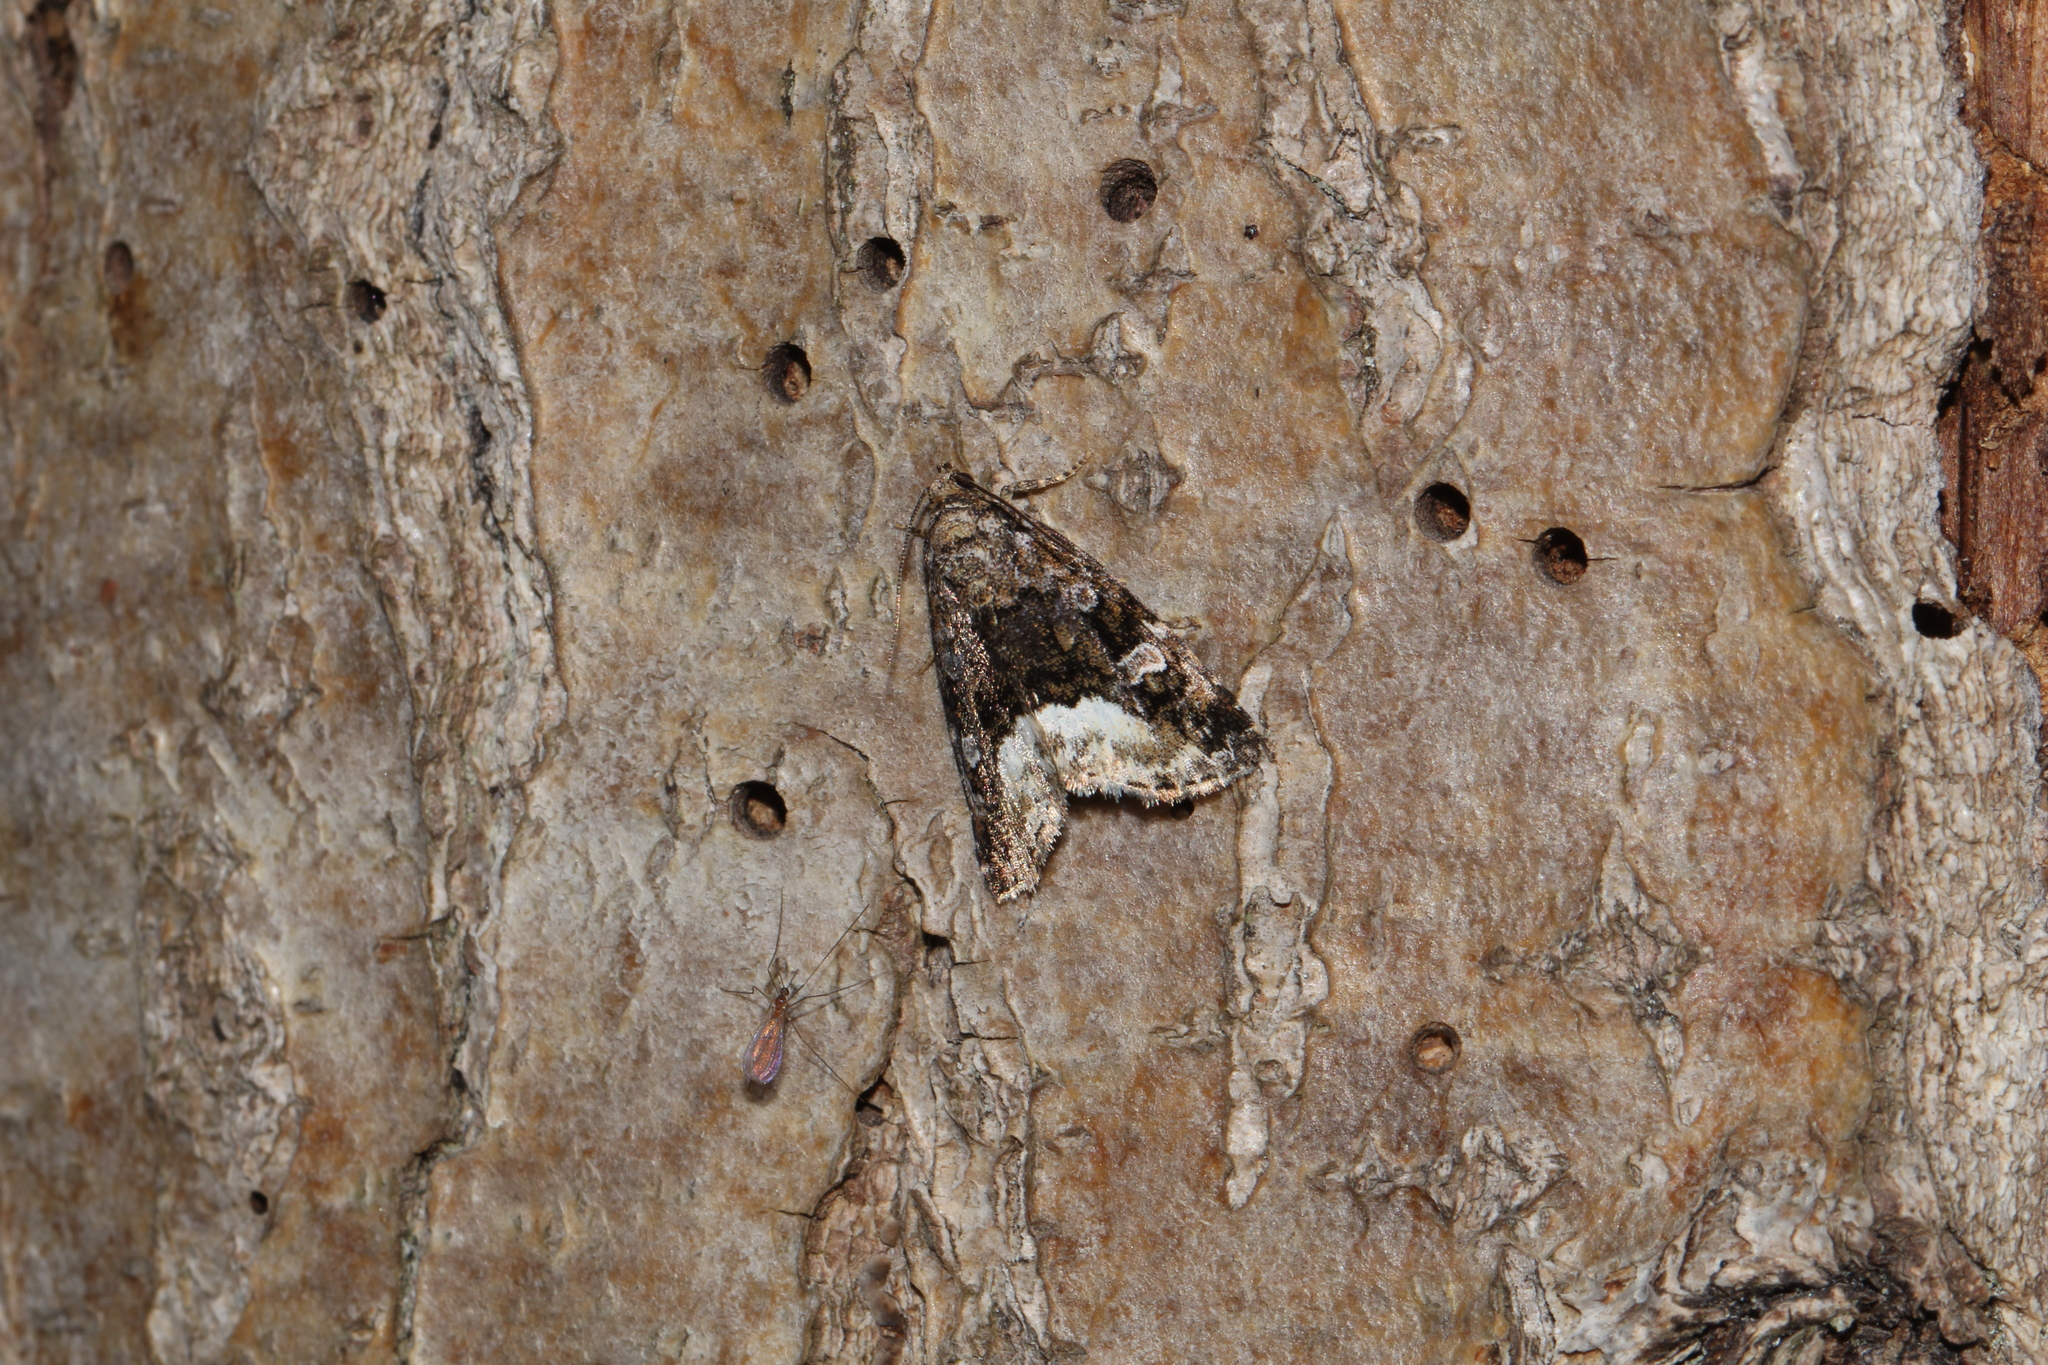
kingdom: Animalia
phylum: Arthropoda
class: Insecta
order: Lepidoptera
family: Noctuidae
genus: Deltote
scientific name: Deltote pygarga
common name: Marbled white spot
